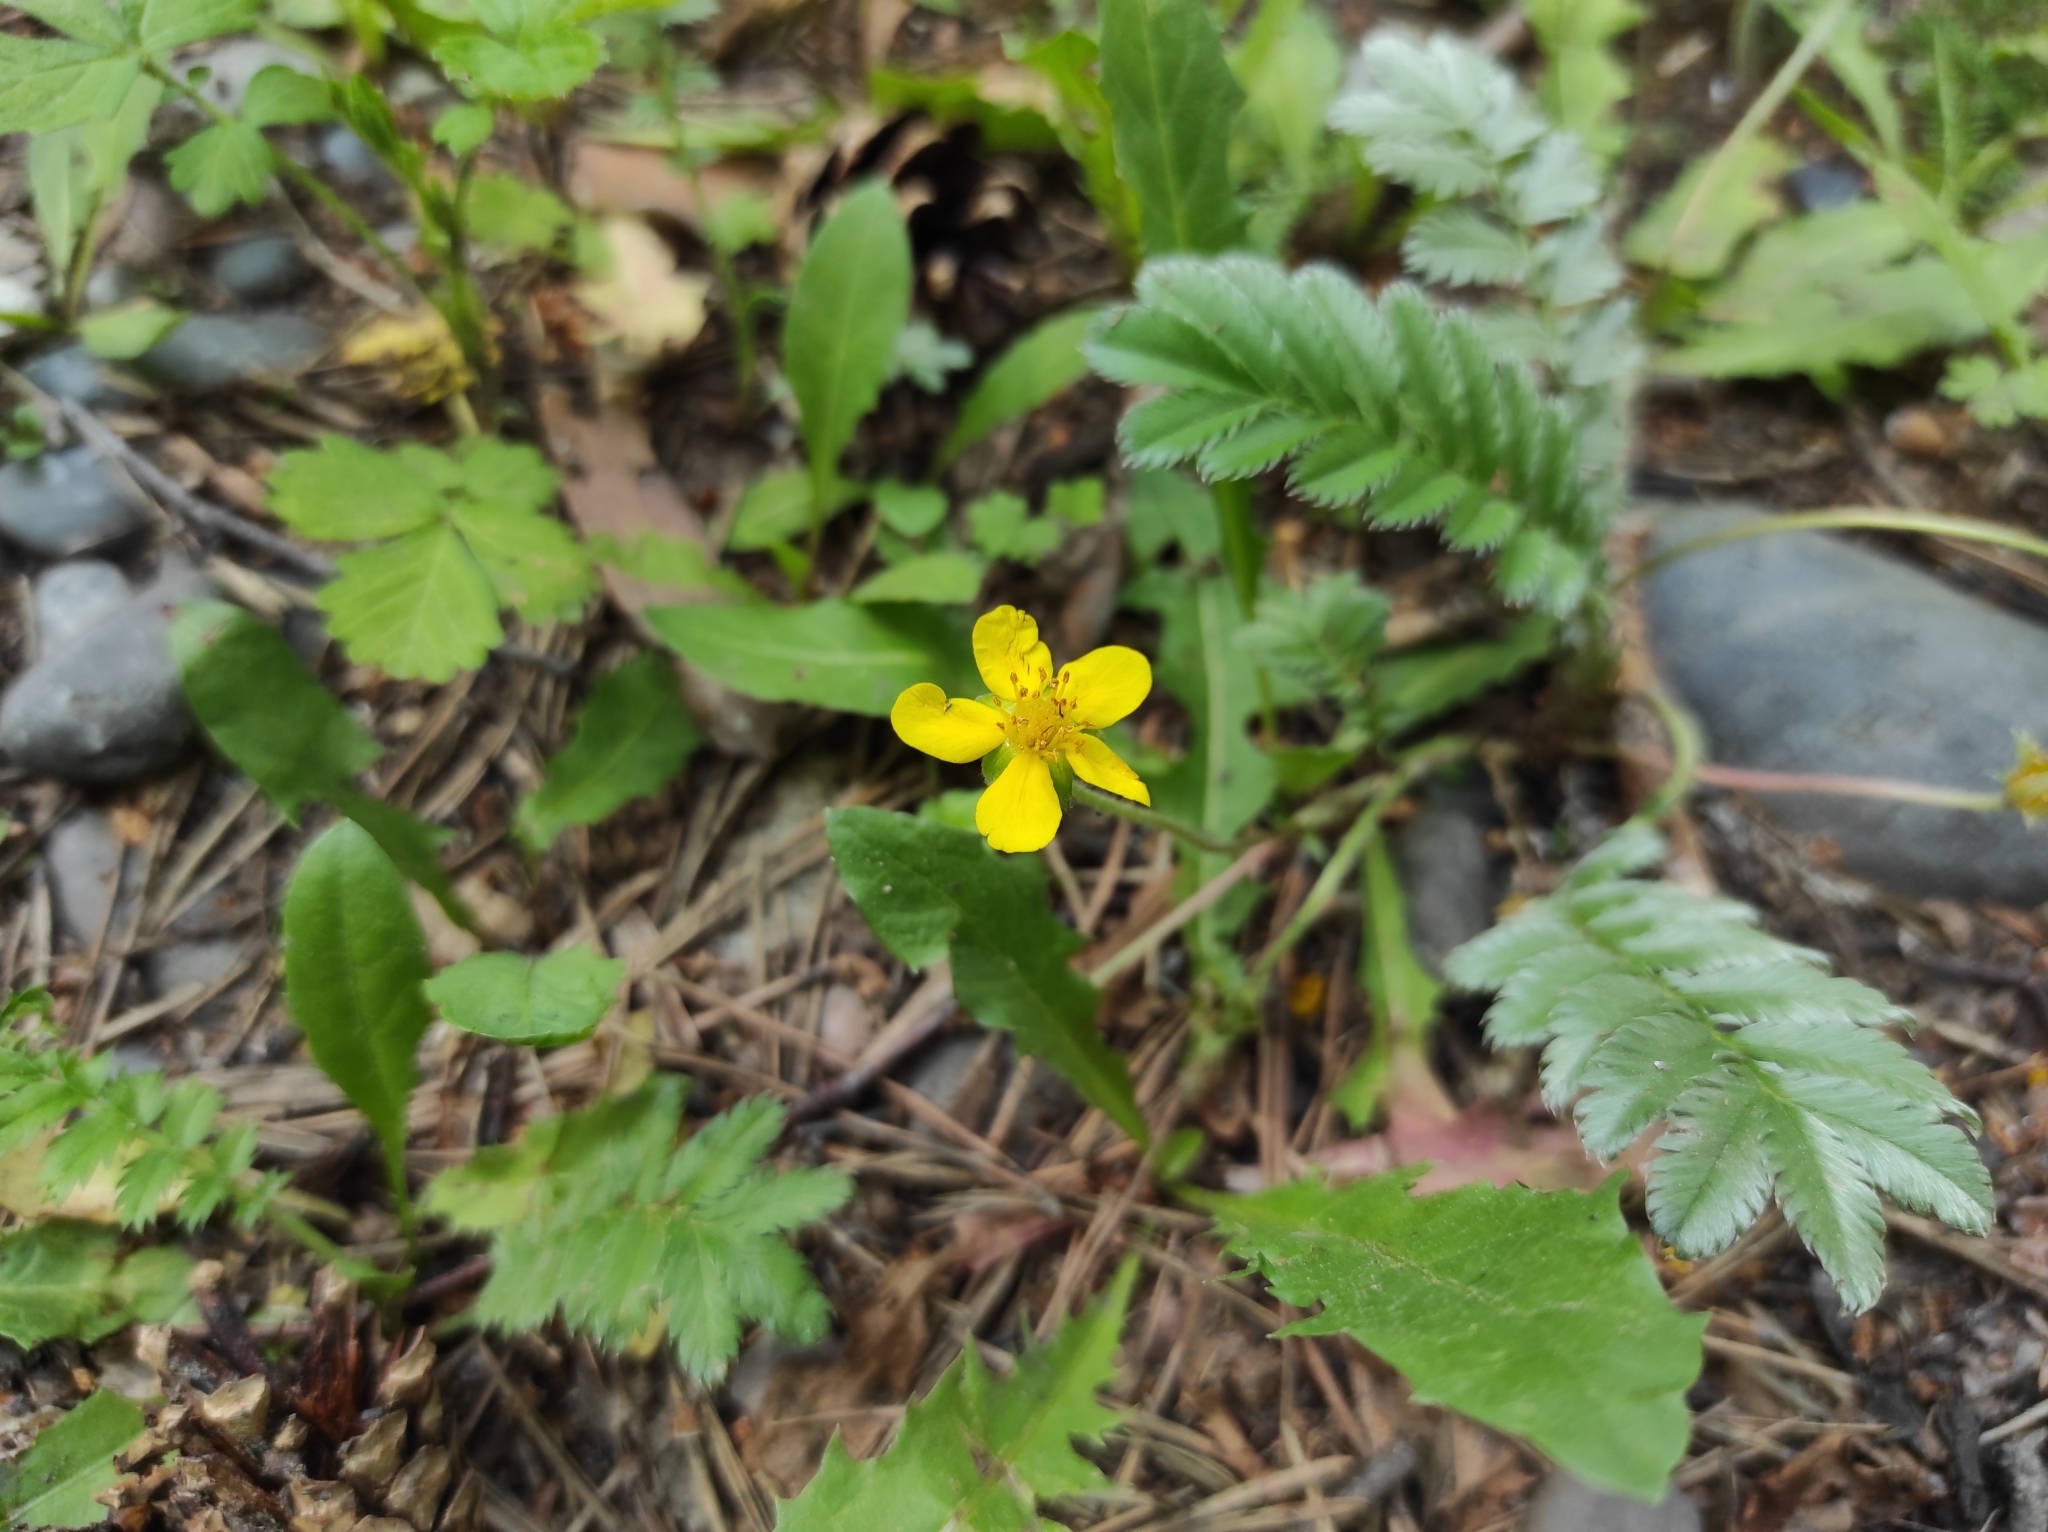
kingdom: Plantae
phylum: Tracheophyta
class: Magnoliopsida
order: Rosales
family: Rosaceae
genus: Argentina
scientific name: Argentina anserina
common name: Common silverweed
